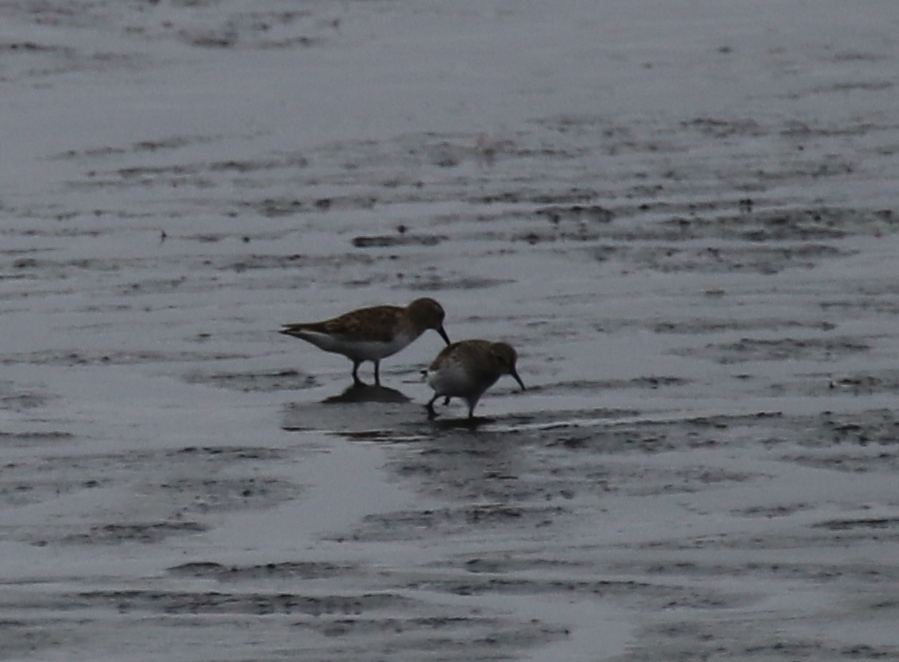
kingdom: Animalia
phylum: Chordata
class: Aves
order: Charadriiformes
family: Scolopacidae
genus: Calidris
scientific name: Calidris fuscicollis
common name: White-rumped sandpiper
